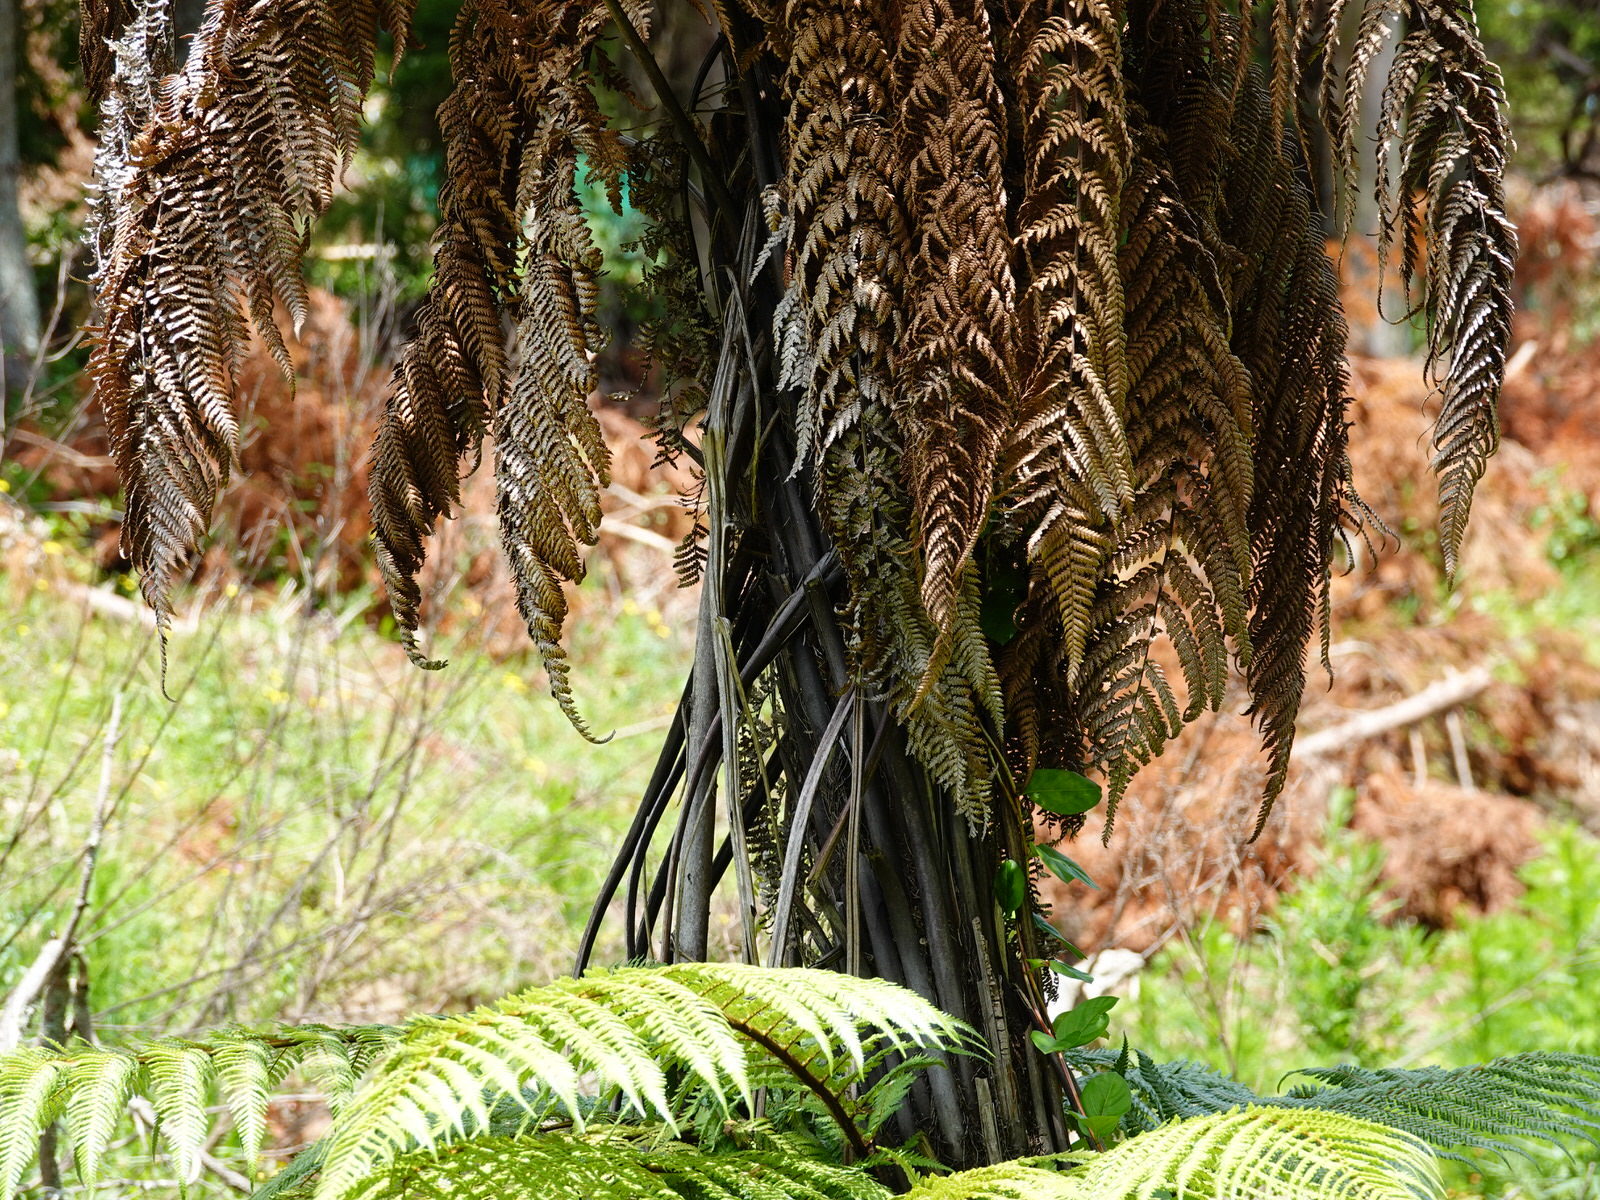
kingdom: Plantae
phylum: Tracheophyta
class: Polypodiopsida
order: Cyatheales
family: Dicksoniaceae
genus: Dicksonia
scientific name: Dicksonia squarrosa
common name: Hard treefern
